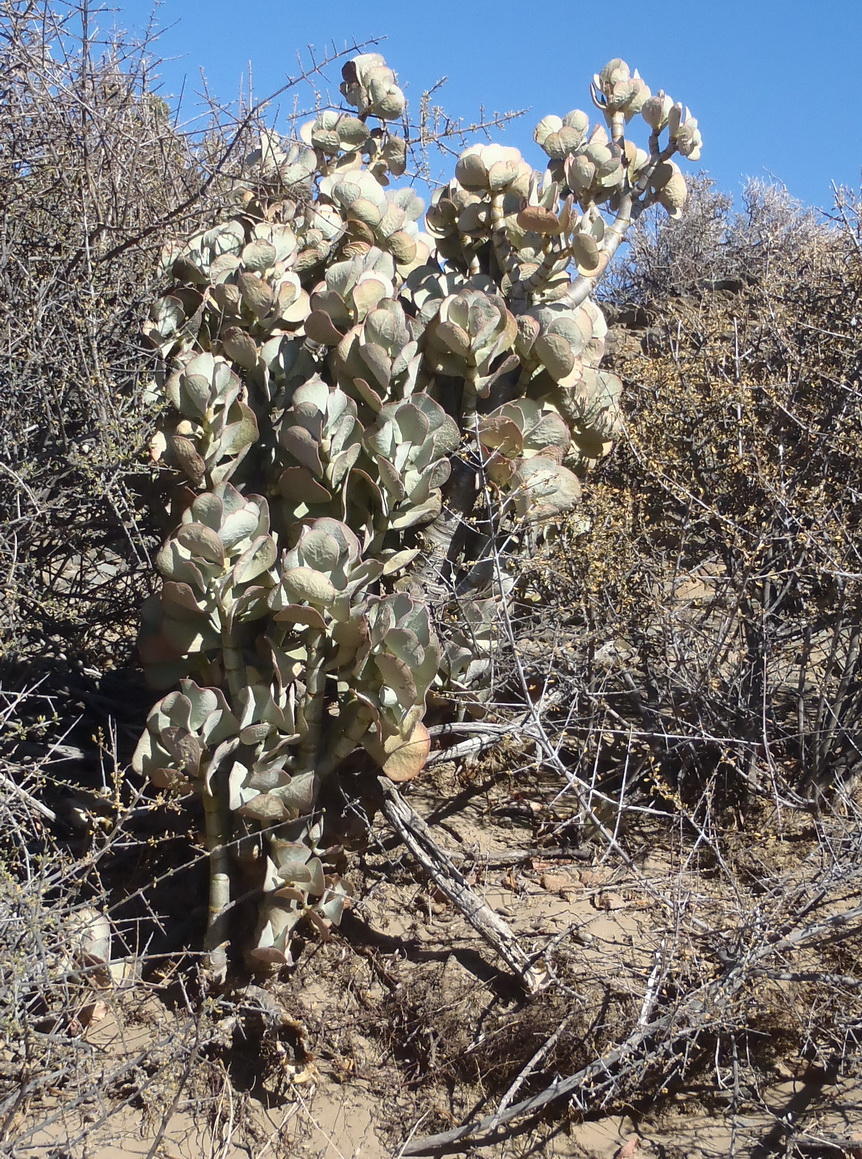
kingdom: Plantae
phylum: Tracheophyta
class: Magnoliopsida
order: Saxifragales
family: Crassulaceae
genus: Crassula
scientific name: Crassula arborescens
